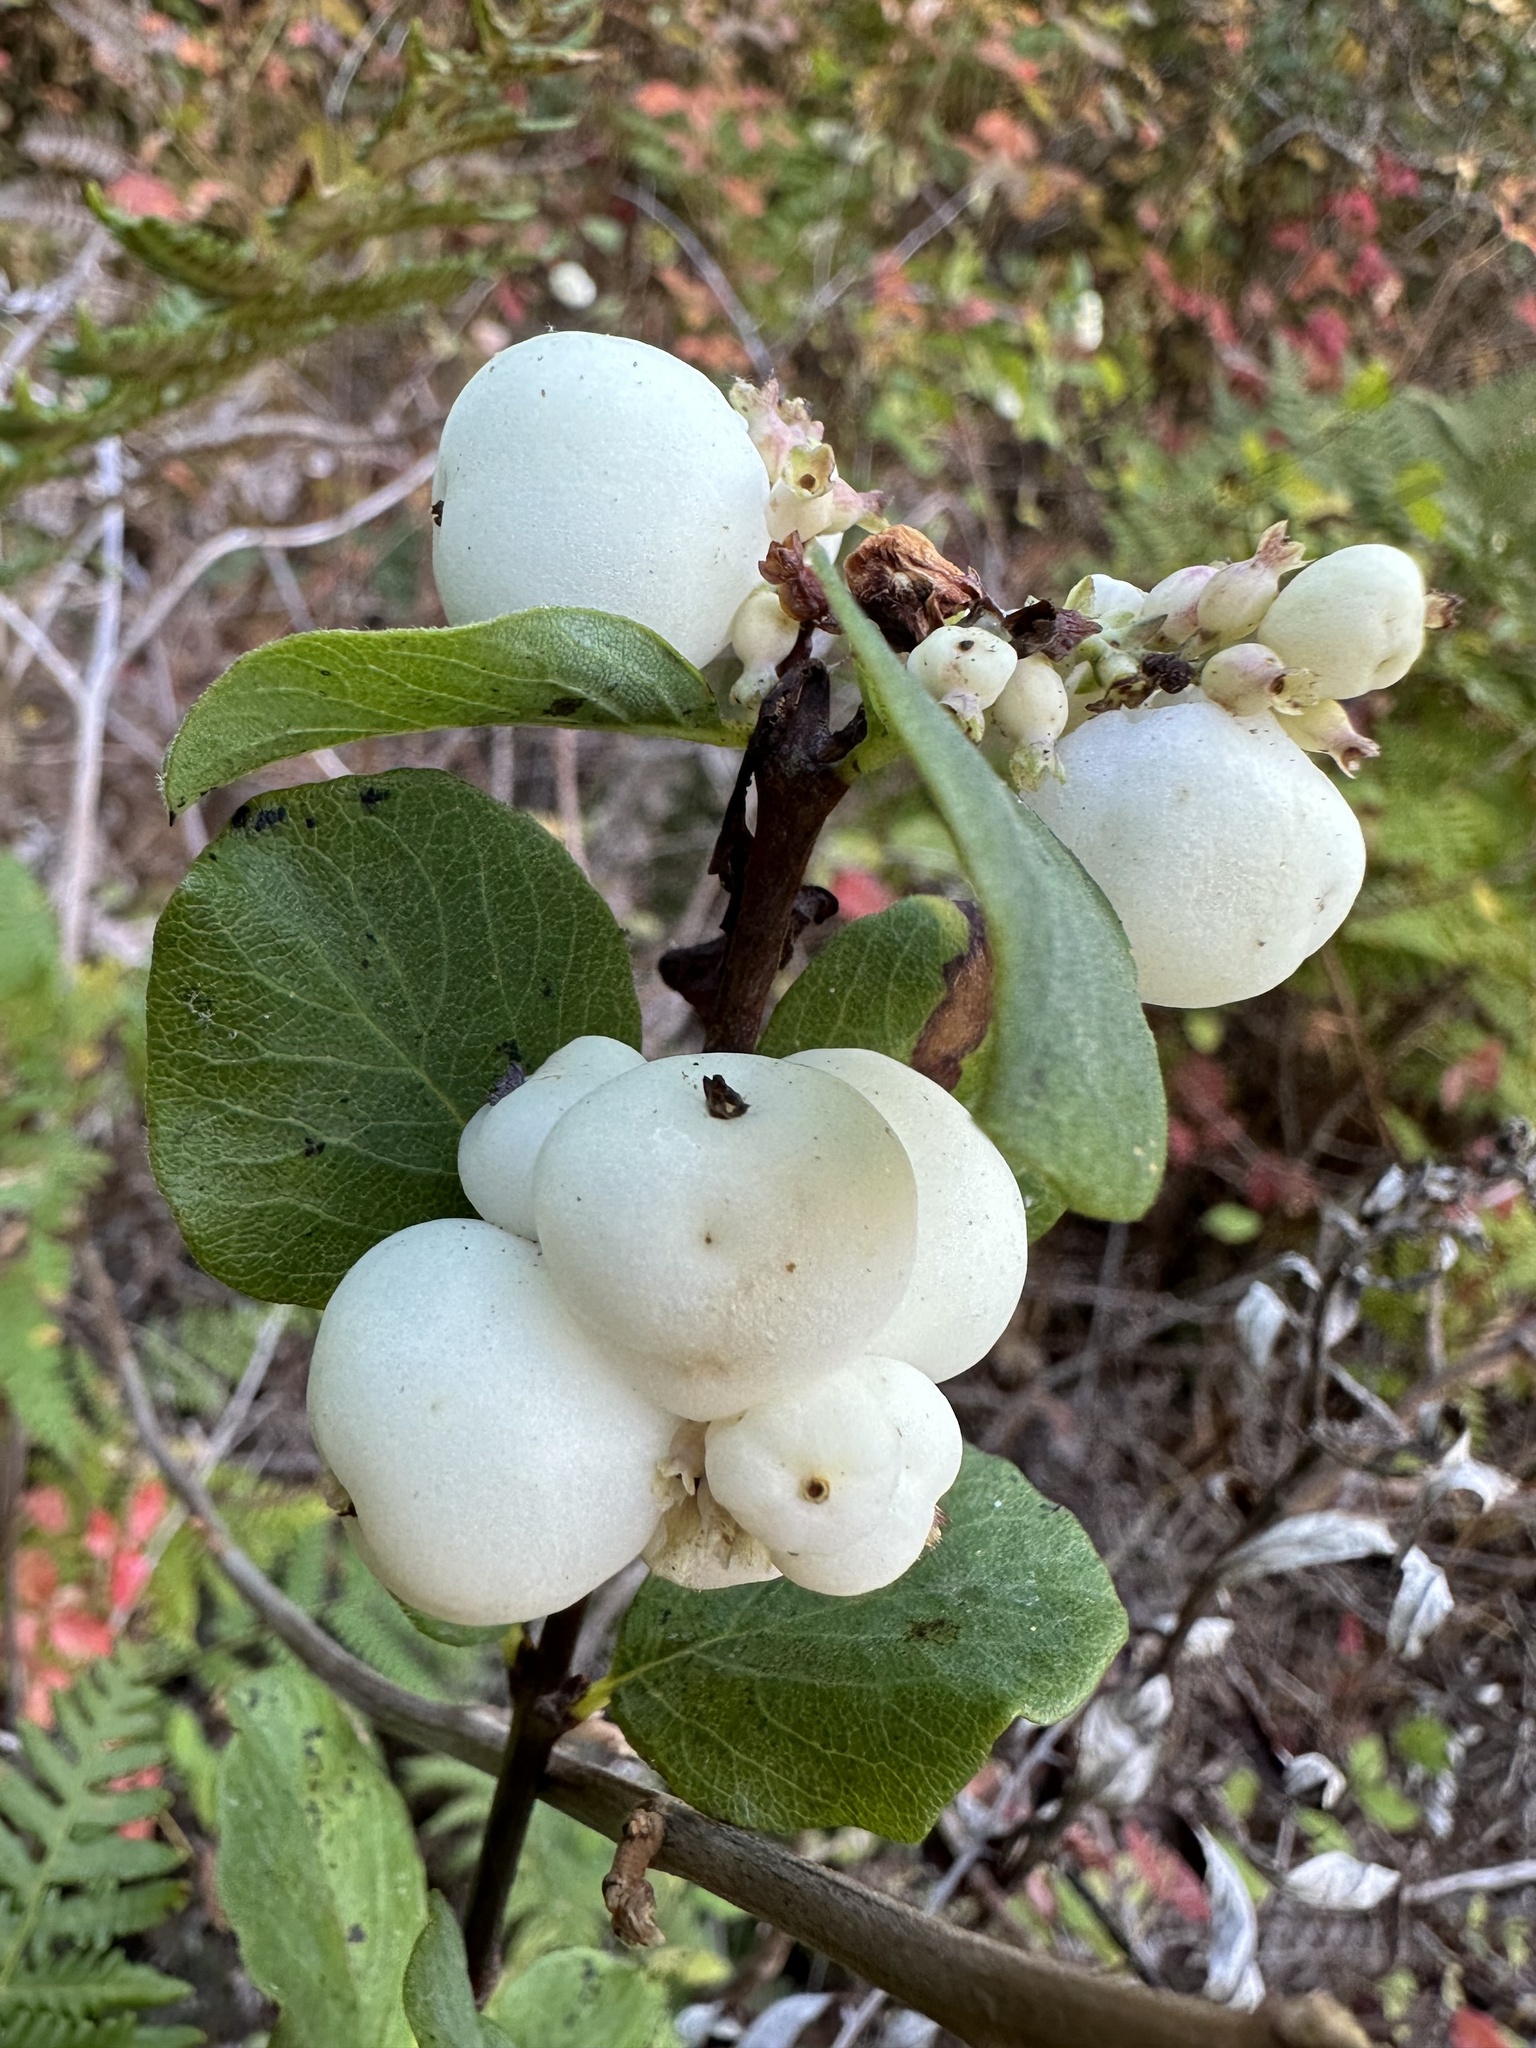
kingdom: Plantae
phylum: Tracheophyta
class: Magnoliopsida
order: Dipsacales
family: Caprifoliaceae
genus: Symphoricarpos
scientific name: Symphoricarpos albus
